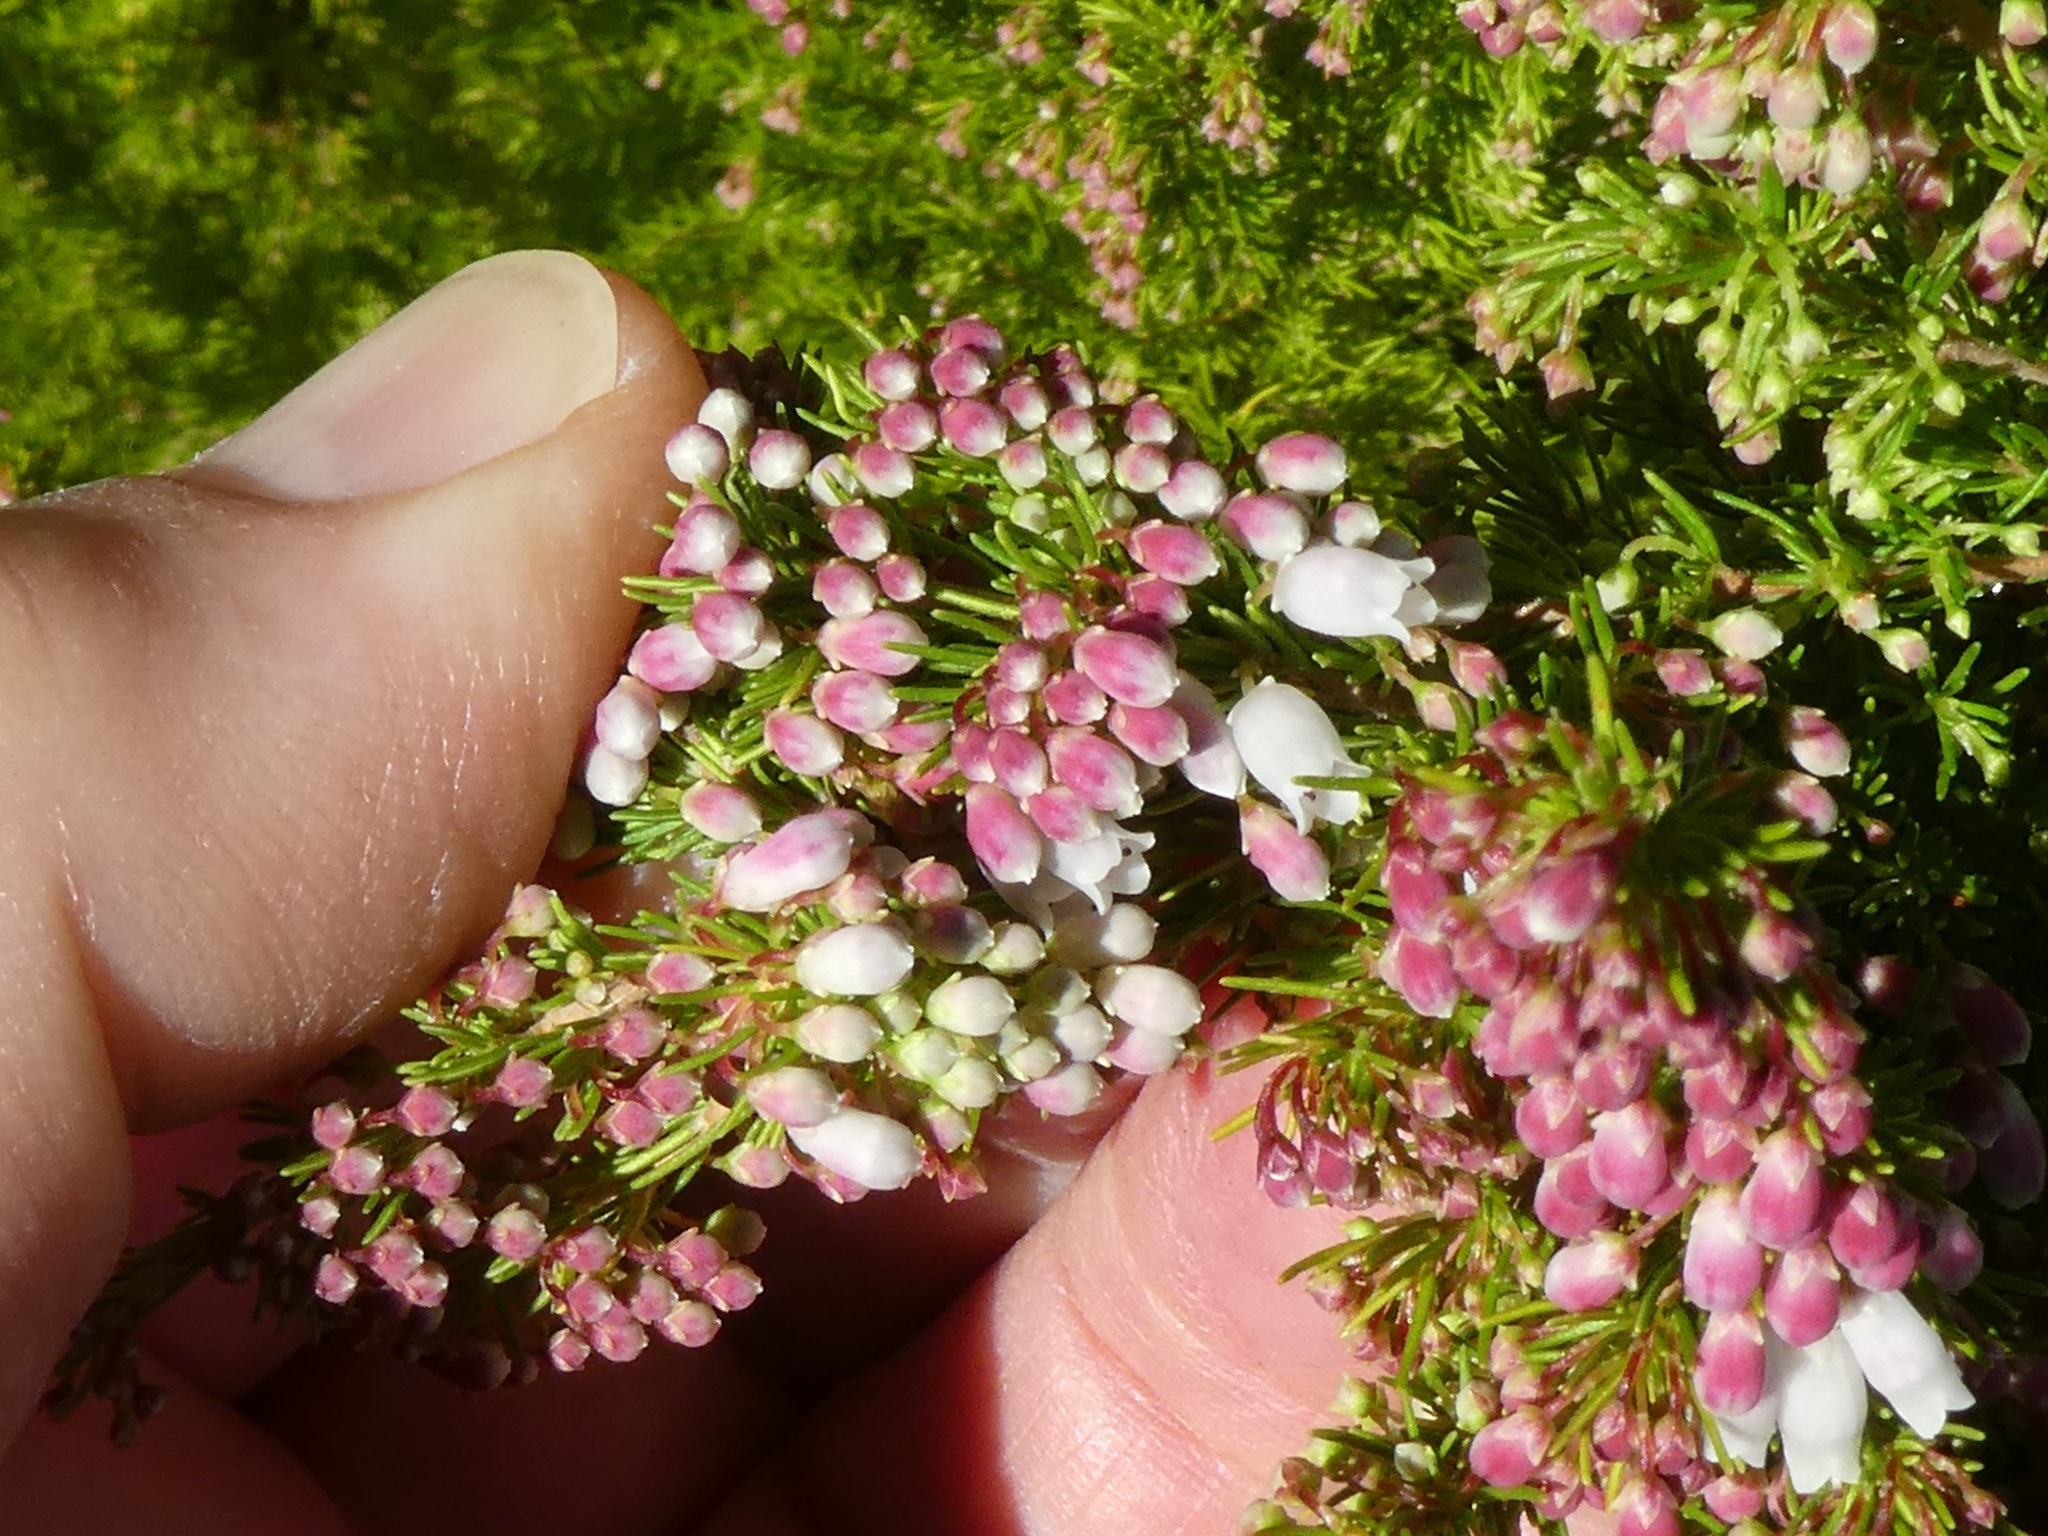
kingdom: Plantae
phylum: Tracheophyta
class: Magnoliopsida
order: Ericales
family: Ericaceae
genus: Erica
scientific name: Erica lusitanica
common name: Spanish heath
